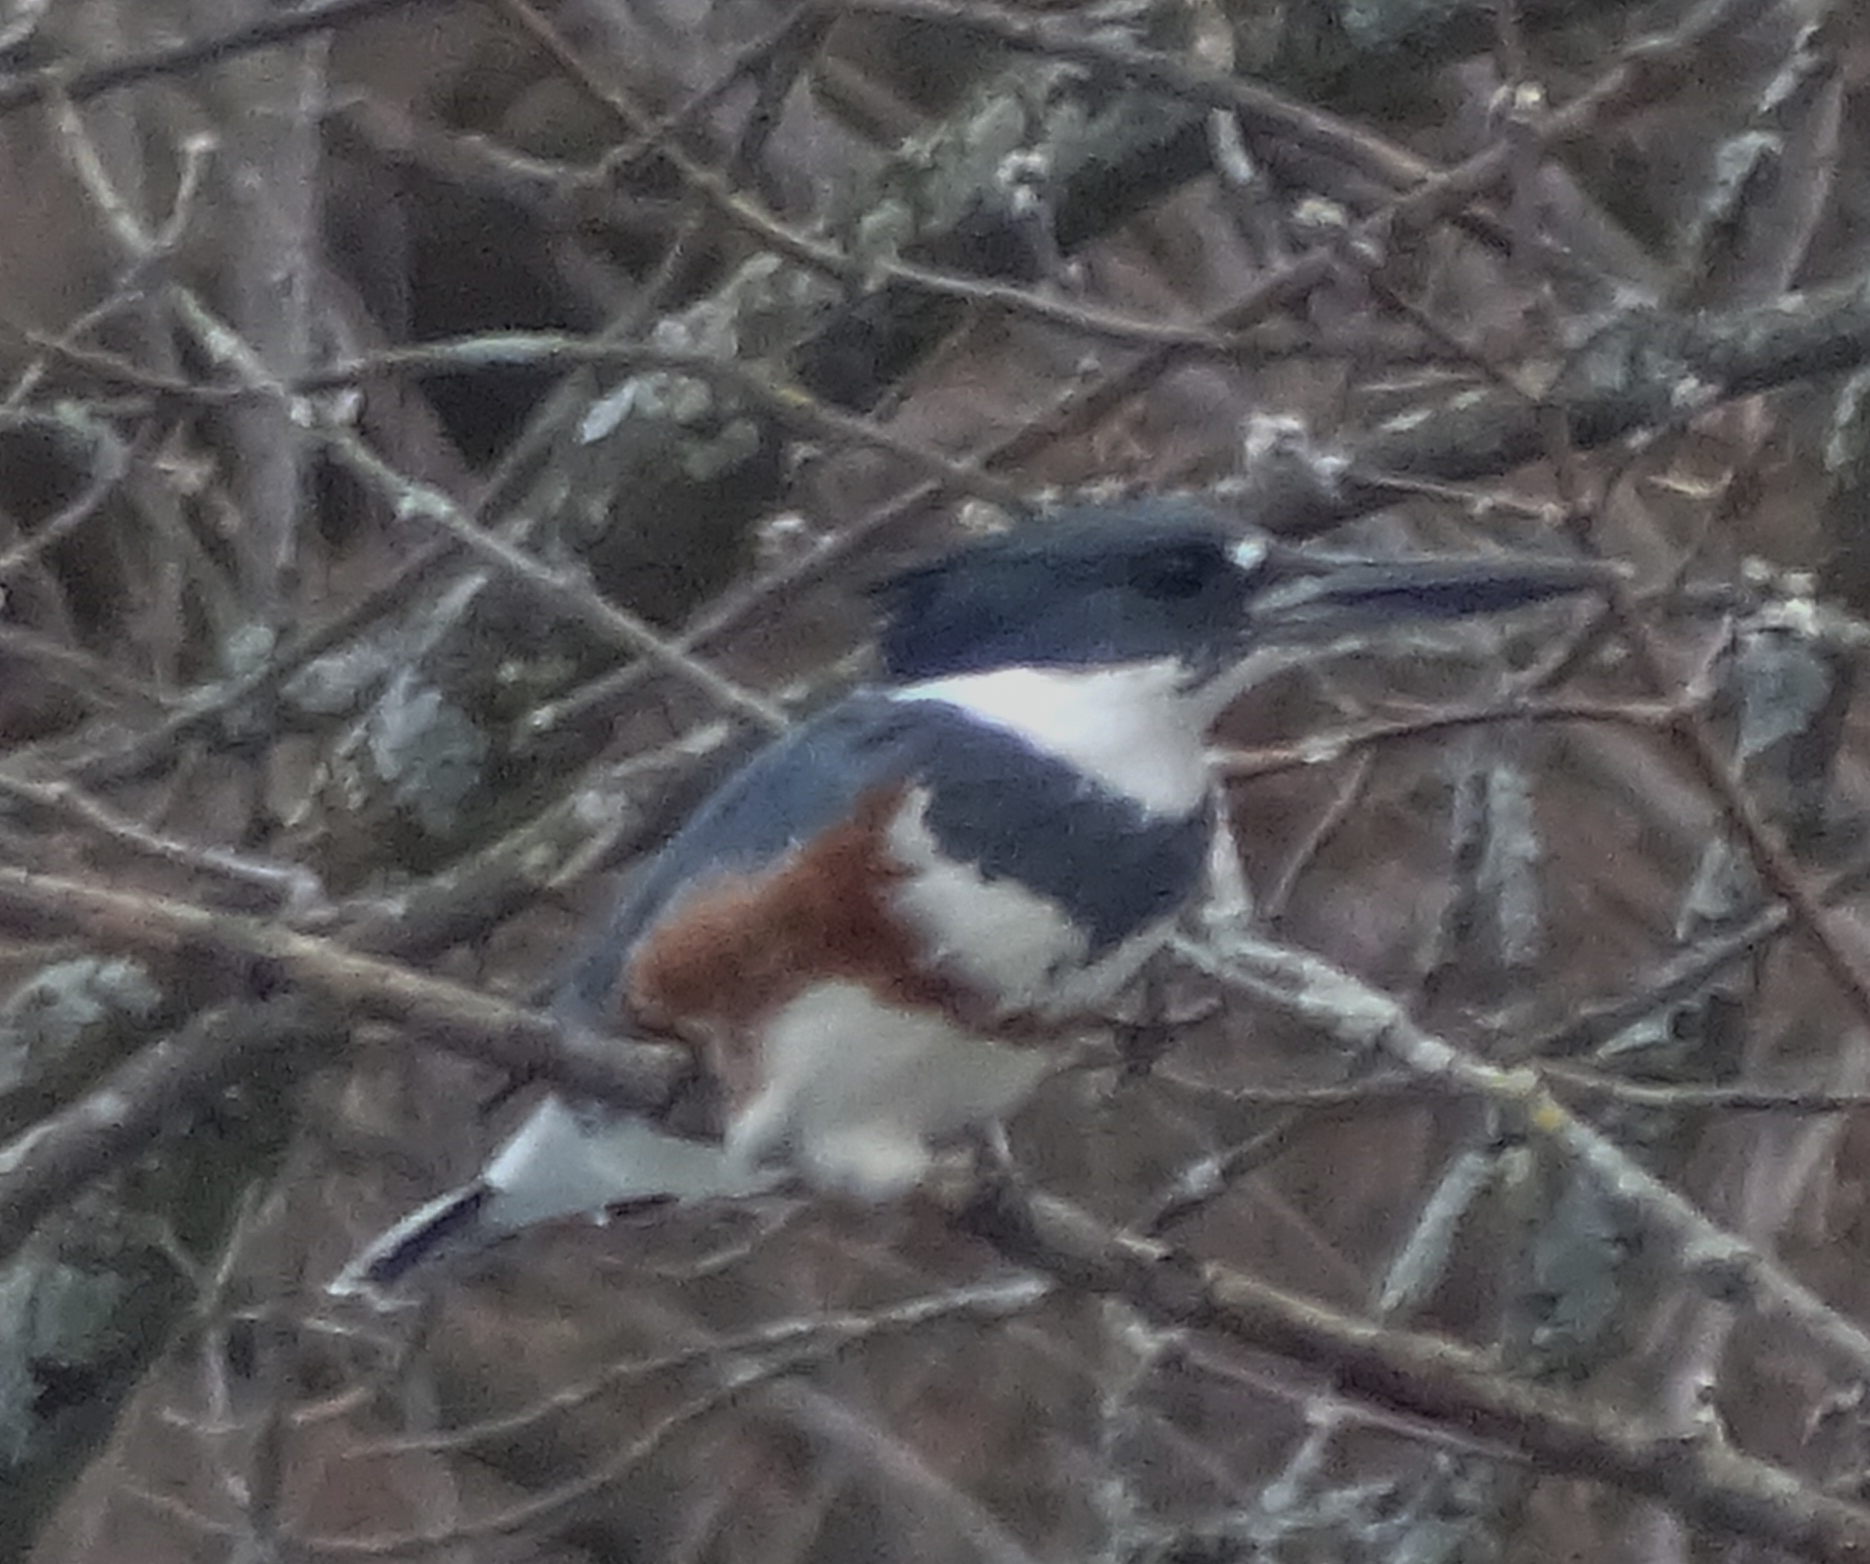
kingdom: Animalia
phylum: Chordata
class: Aves
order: Coraciiformes
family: Alcedinidae
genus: Megaceryle
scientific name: Megaceryle alcyon
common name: Belted kingfisher
